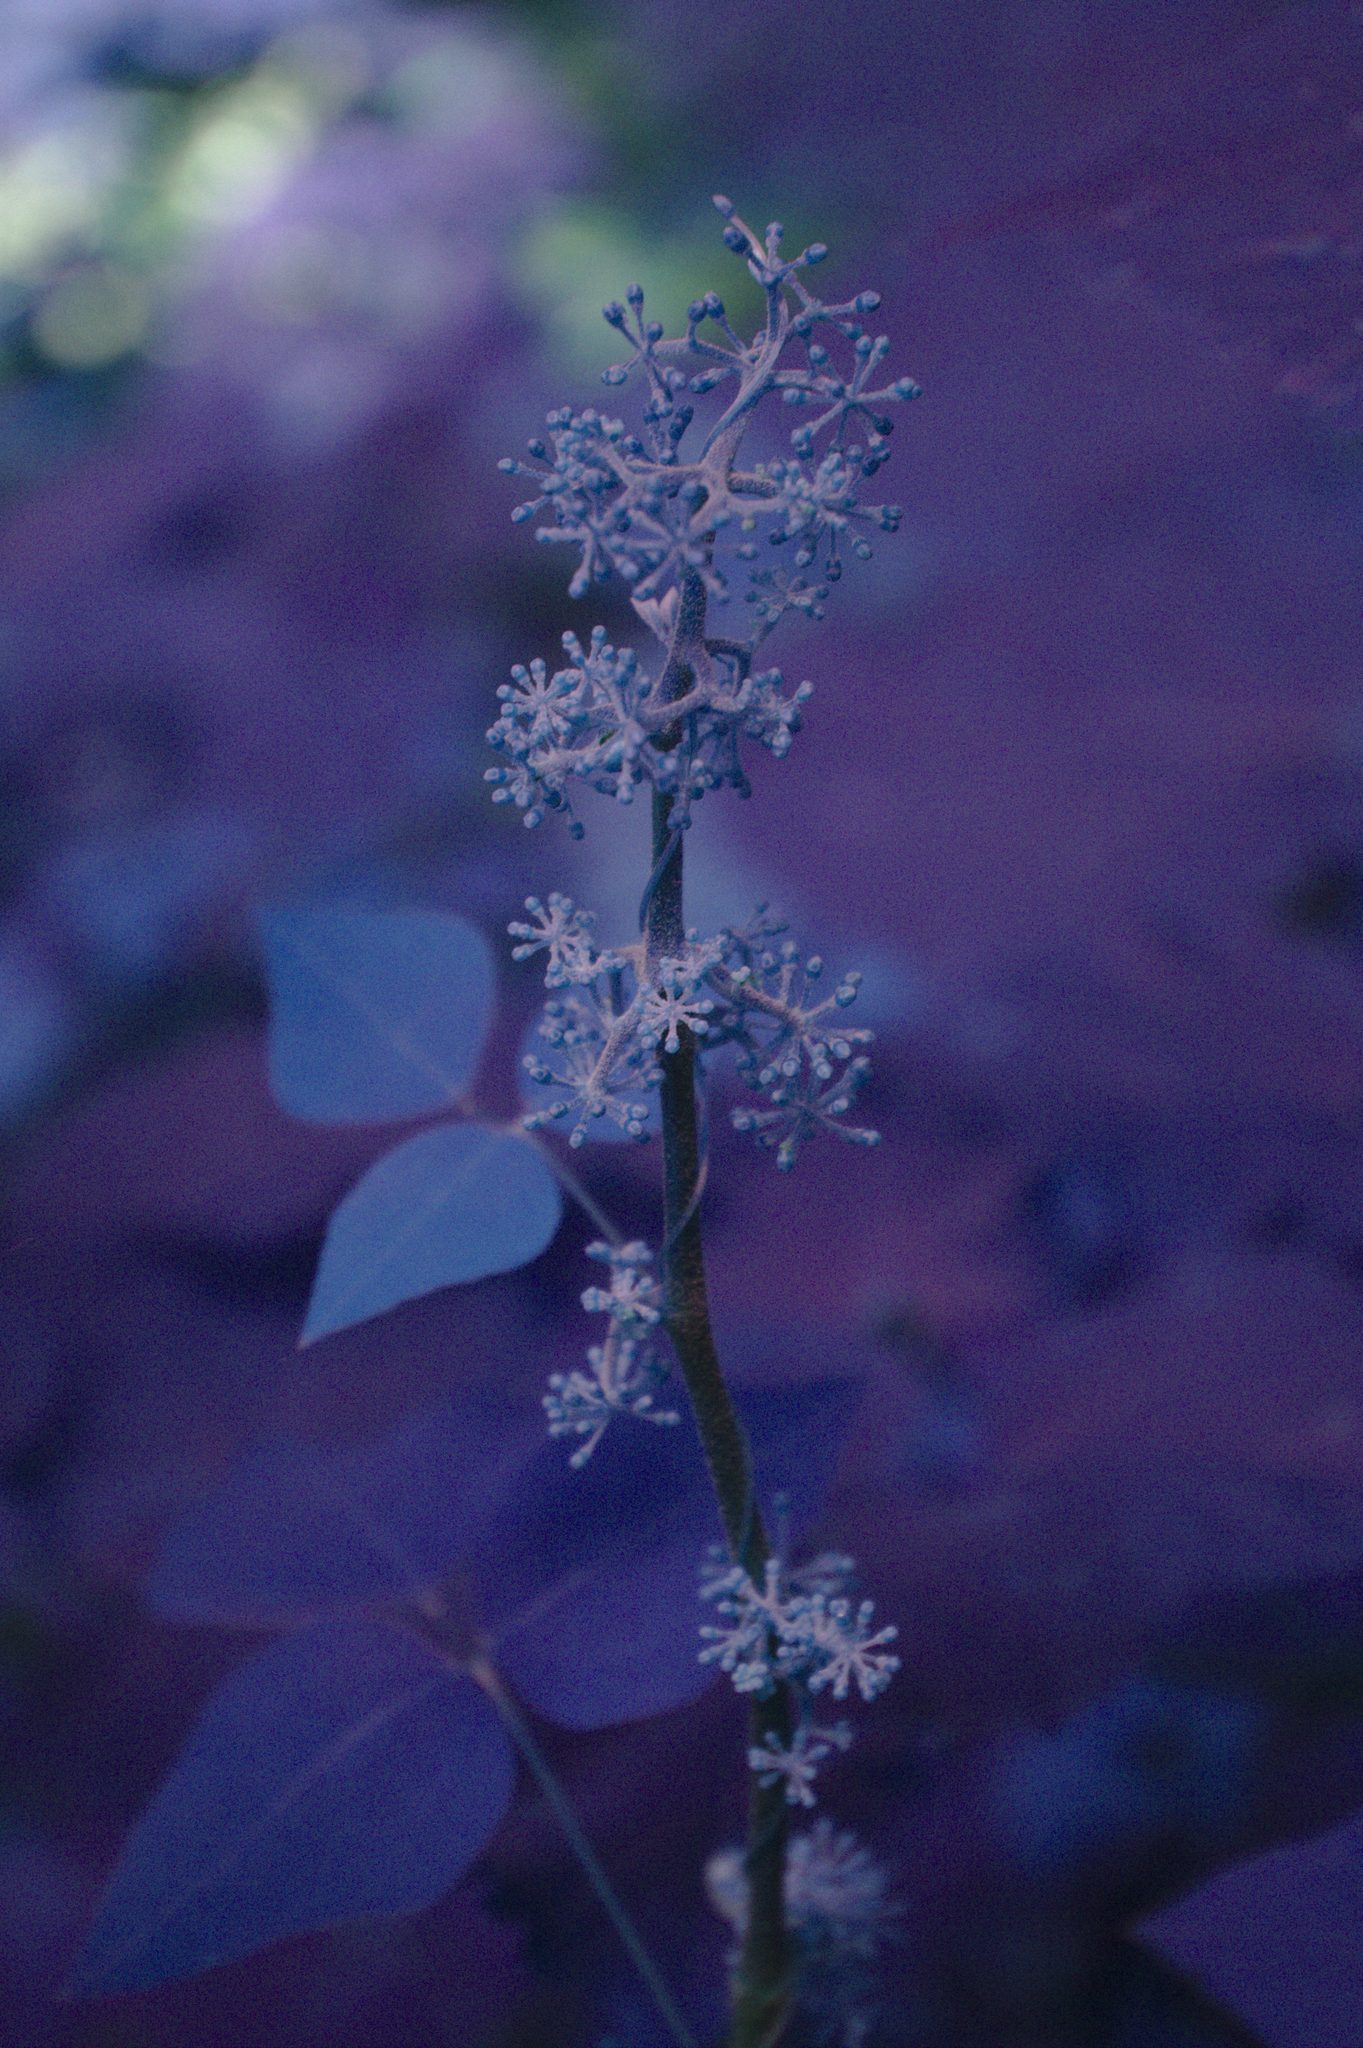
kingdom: Plantae
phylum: Tracheophyta
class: Magnoliopsida
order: Apiales
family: Araliaceae
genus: Aralia
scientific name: Aralia racemosa
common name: American-spikenard
